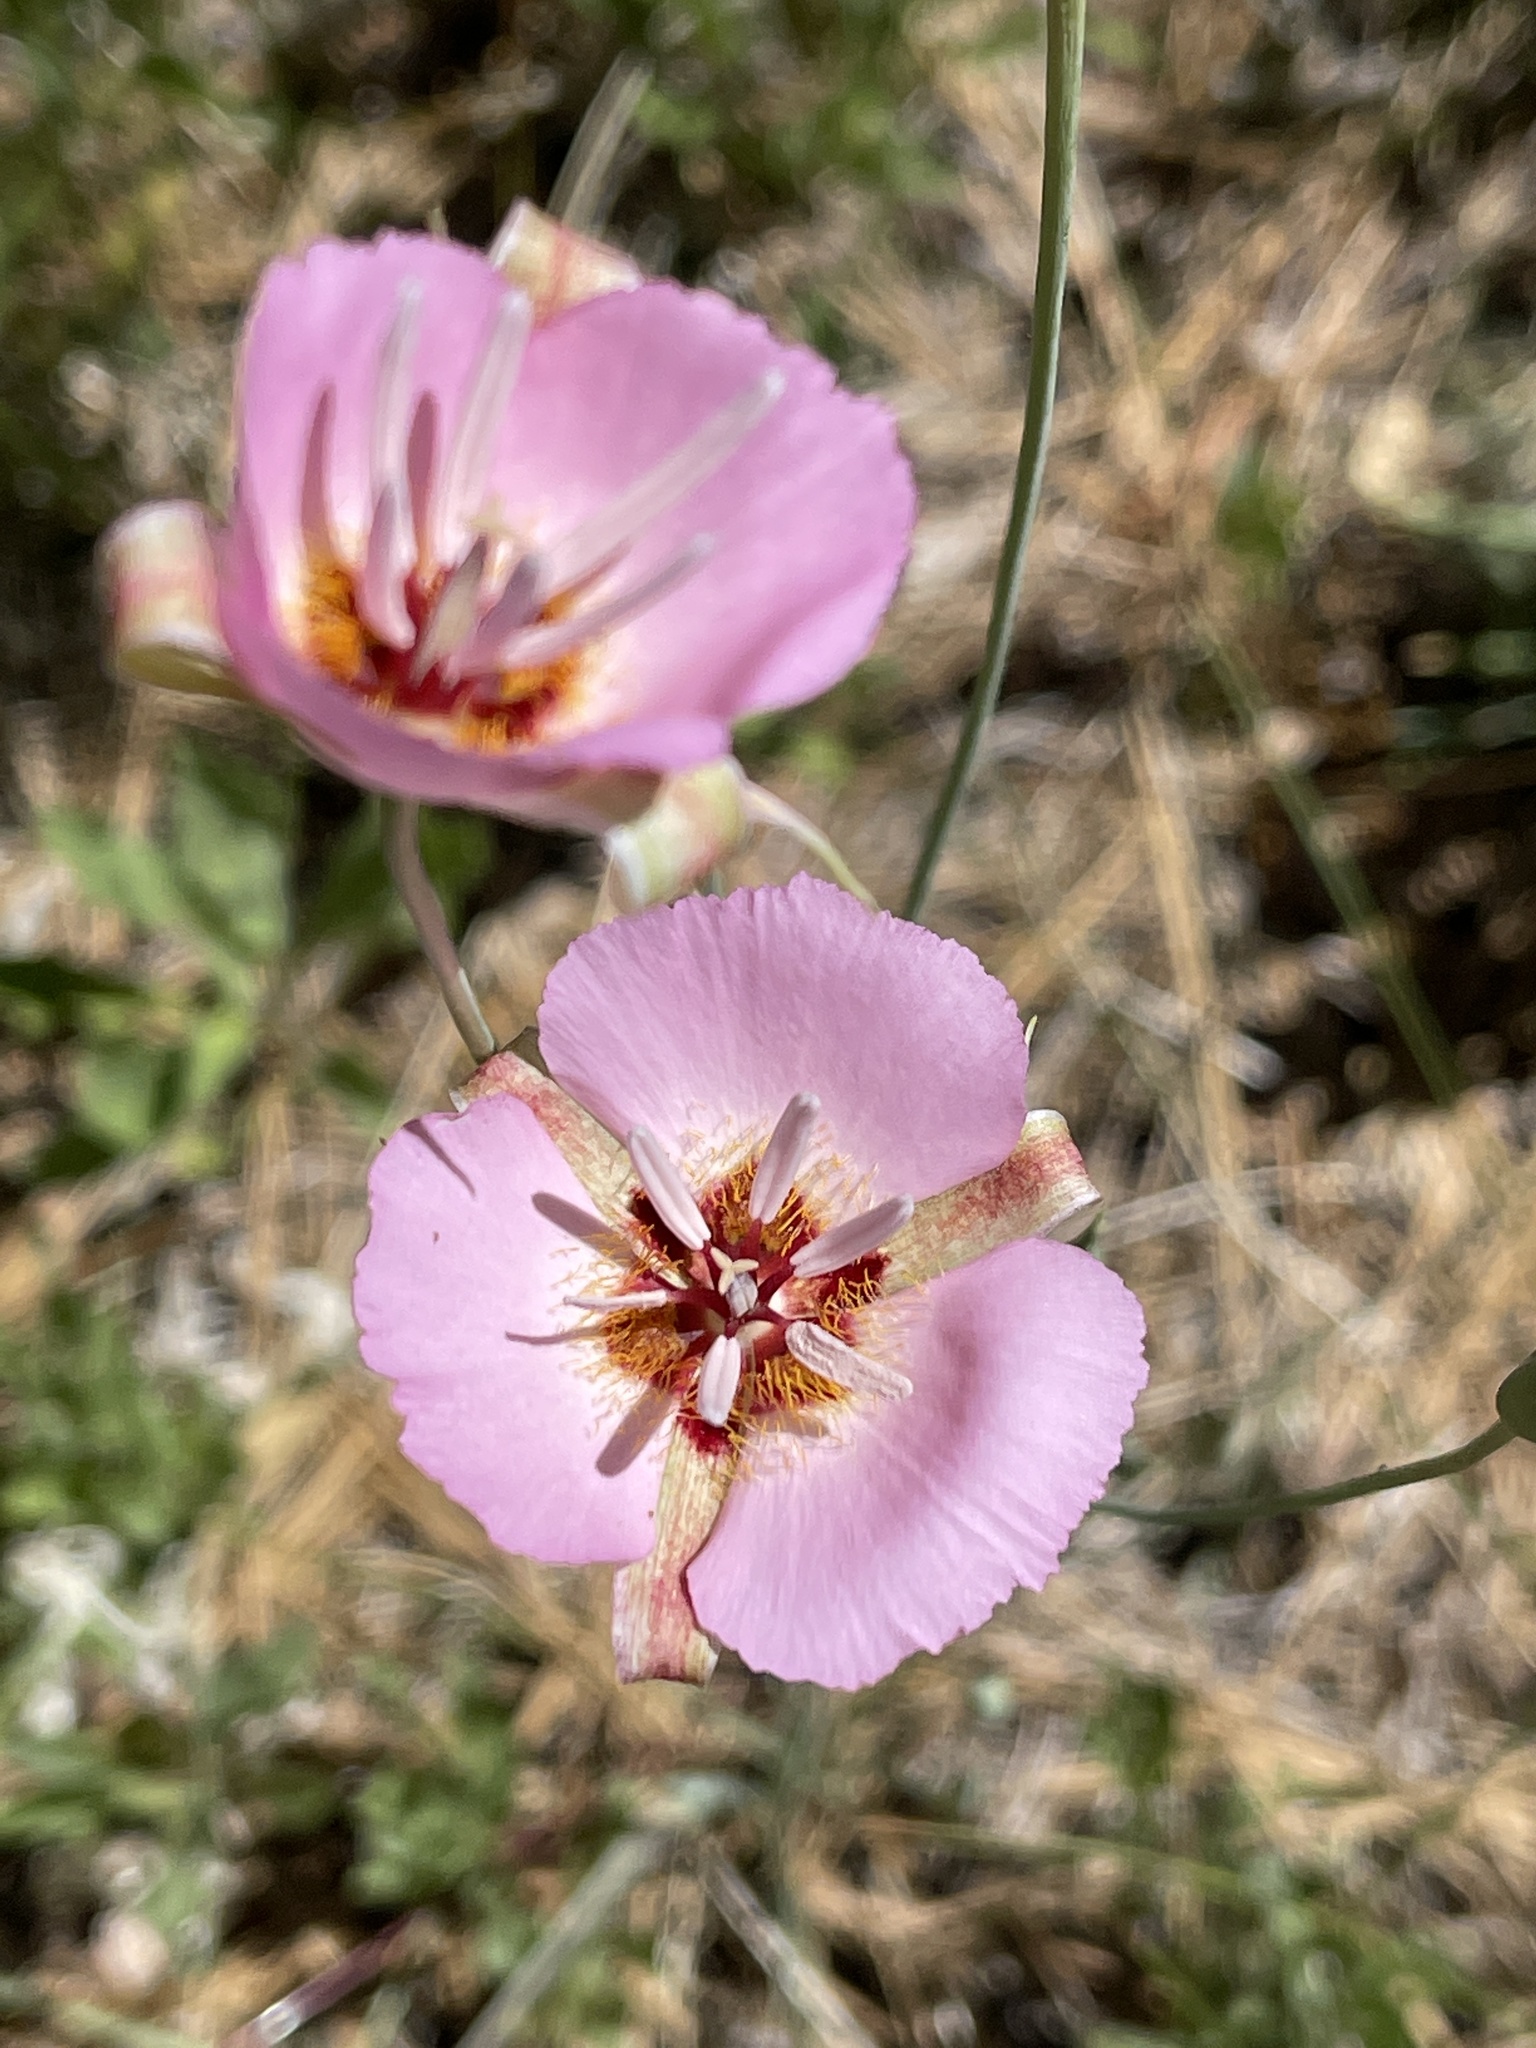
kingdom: Plantae
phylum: Tracheophyta
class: Liliopsida
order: Liliales
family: Liliaceae
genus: Calochortus
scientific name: Calochortus palmeri
